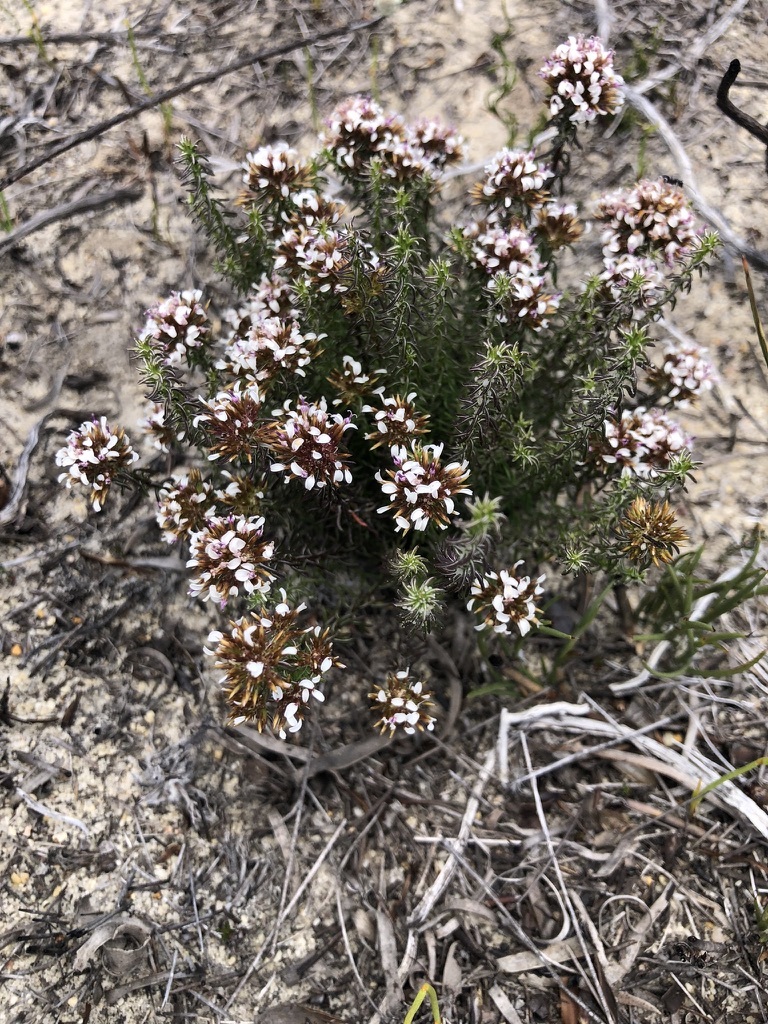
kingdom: Plantae
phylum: Tracheophyta
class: Magnoliopsida
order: Asterales
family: Asteraceae
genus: Disparago
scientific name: Disparago ericoides
